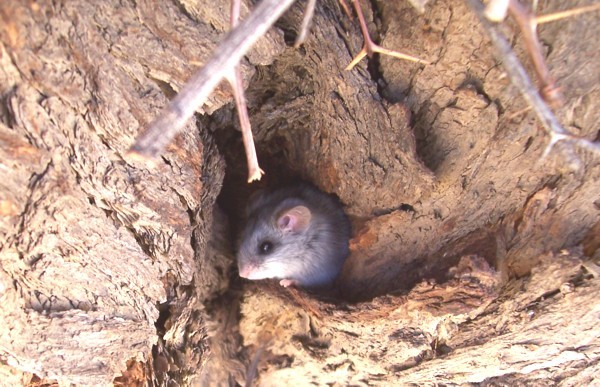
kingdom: Animalia
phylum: Chordata
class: Mammalia
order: Rodentia
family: Muridae
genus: Thallomys
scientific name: Thallomys nigricauda
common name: Black-tailed thallomys
